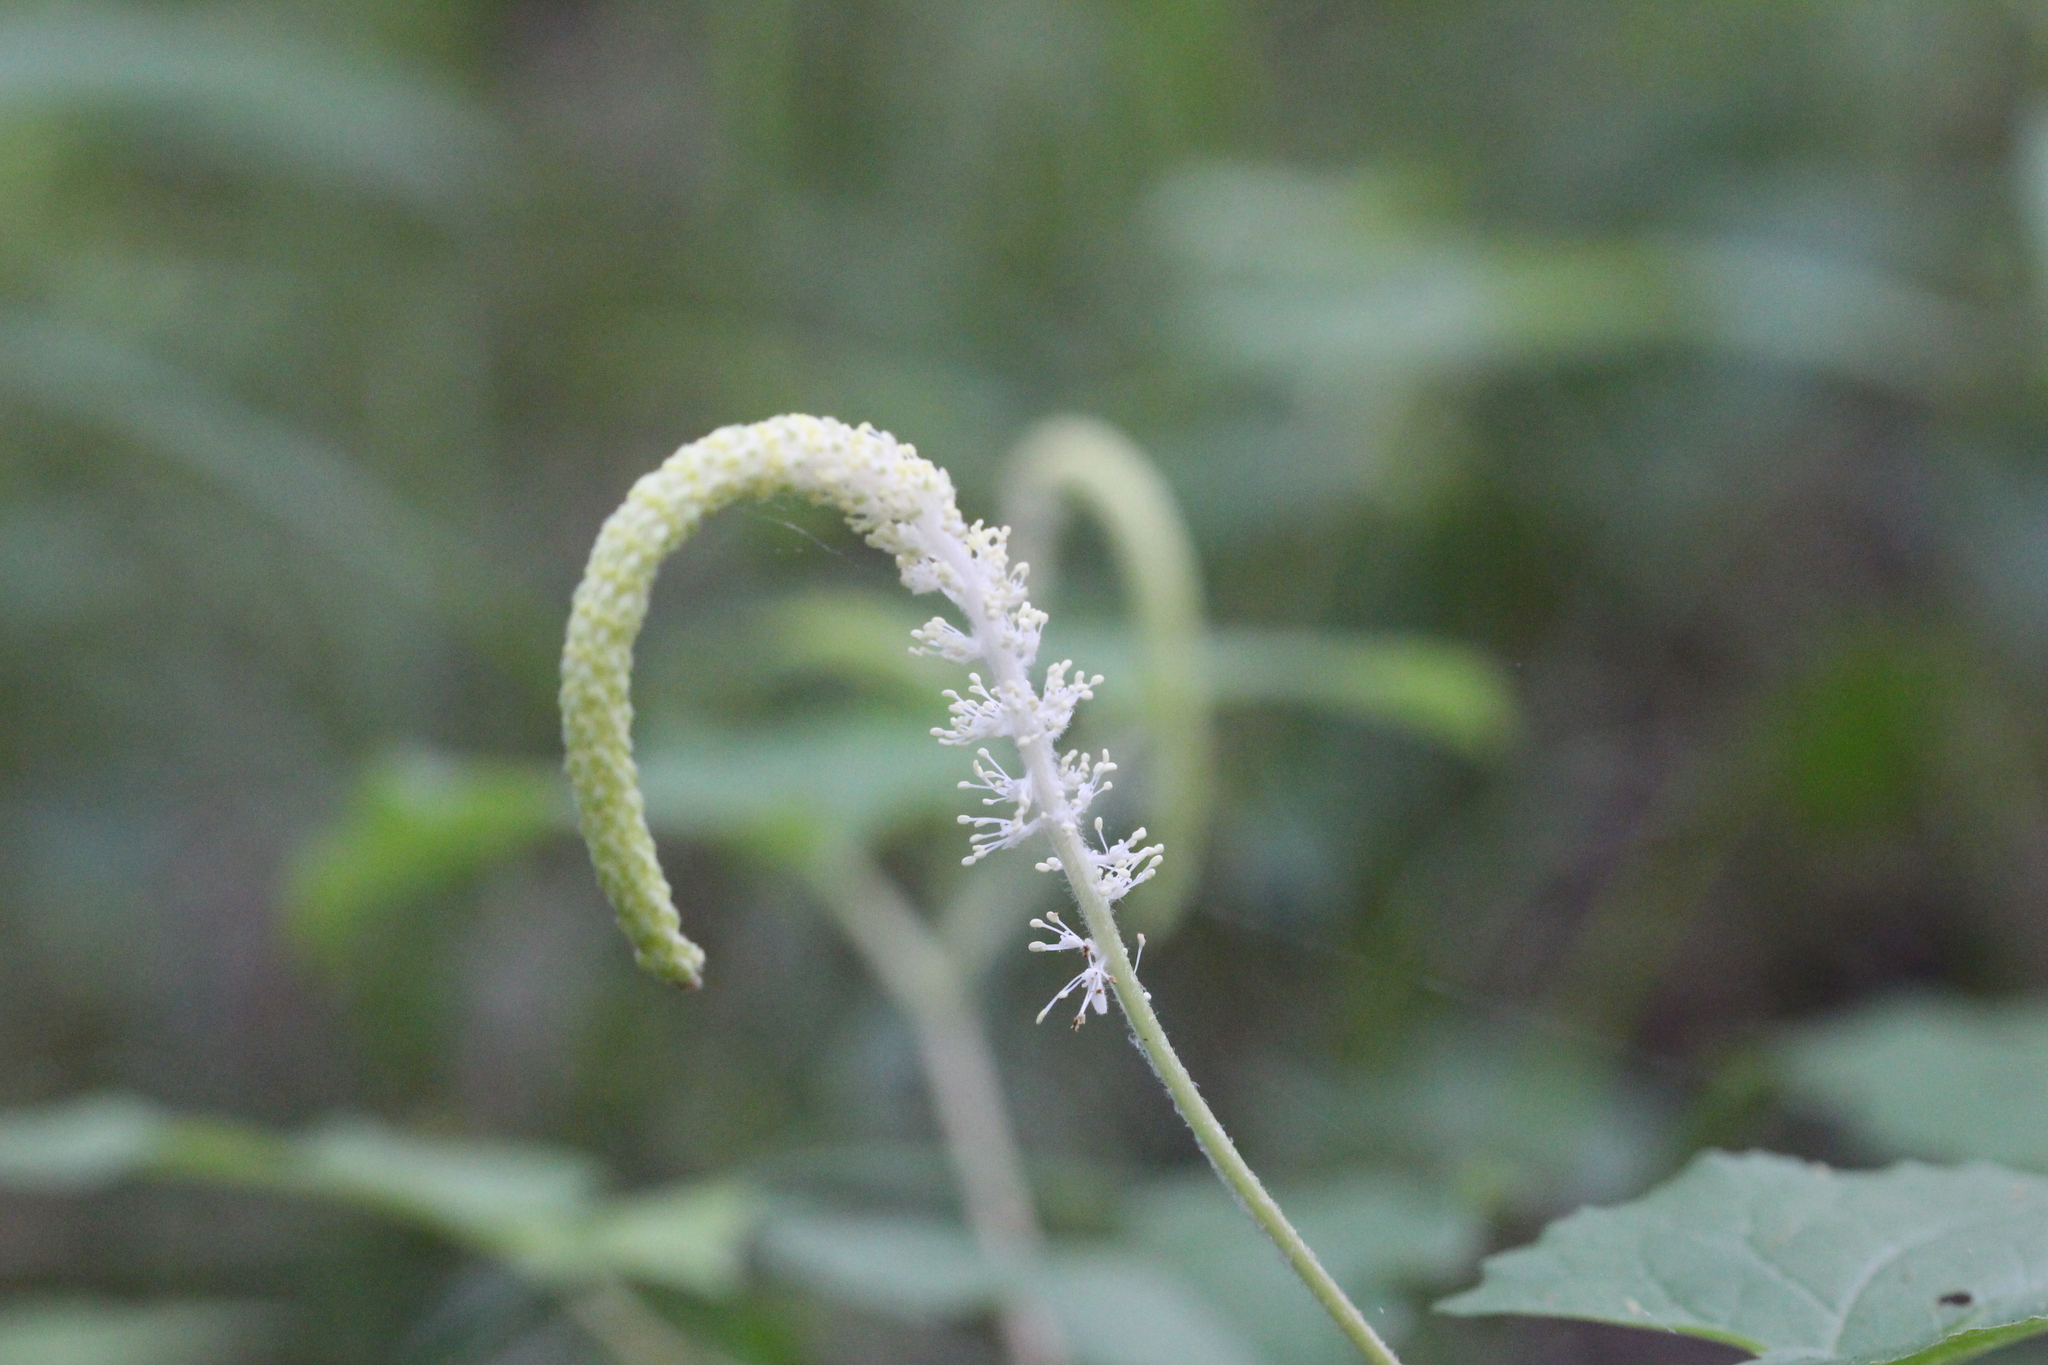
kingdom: Plantae
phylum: Tracheophyta
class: Magnoliopsida
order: Piperales
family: Saururaceae
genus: Saururus
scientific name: Saururus cernuus
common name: Lizard's-tail
